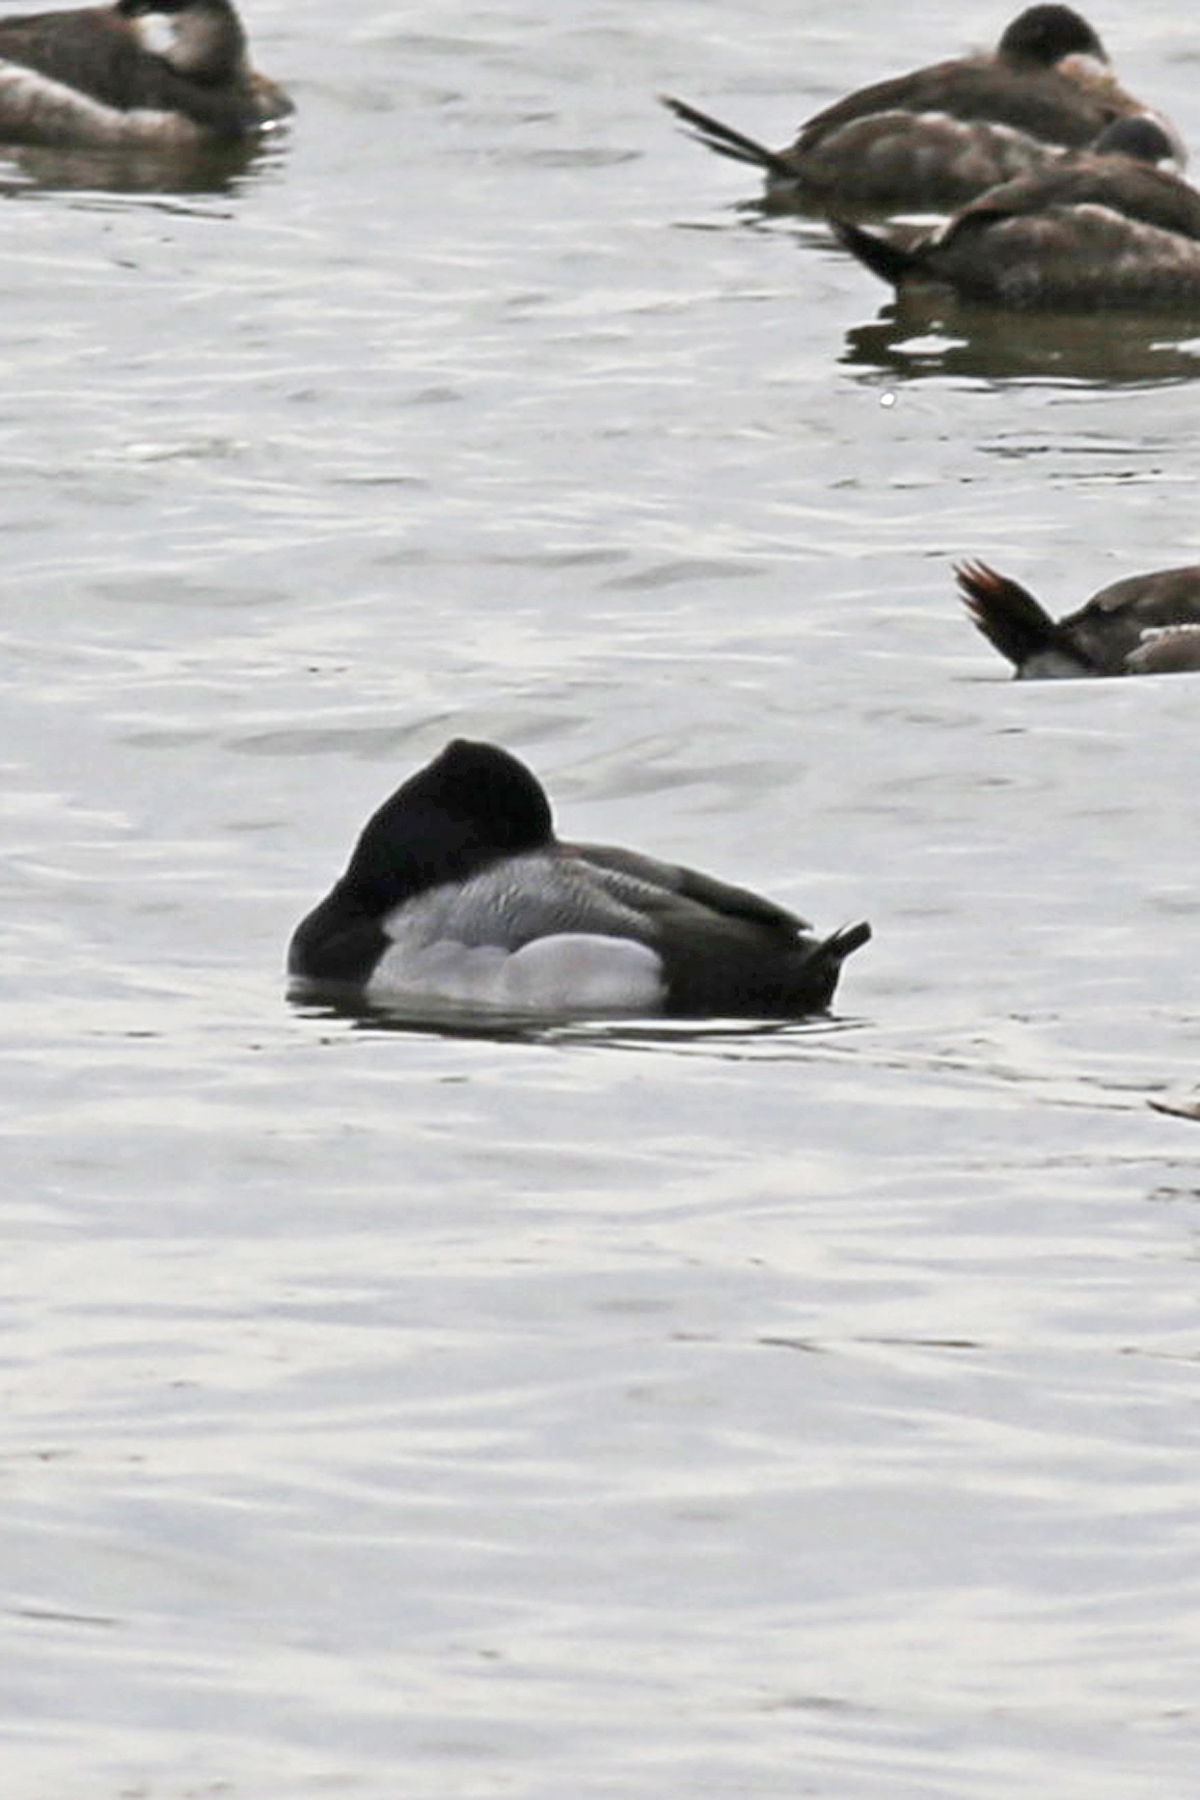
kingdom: Animalia
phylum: Chordata
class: Aves
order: Anseriformes
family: Anatidae
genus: Aythya
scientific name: Aythya affinis
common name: Lesser scaup
